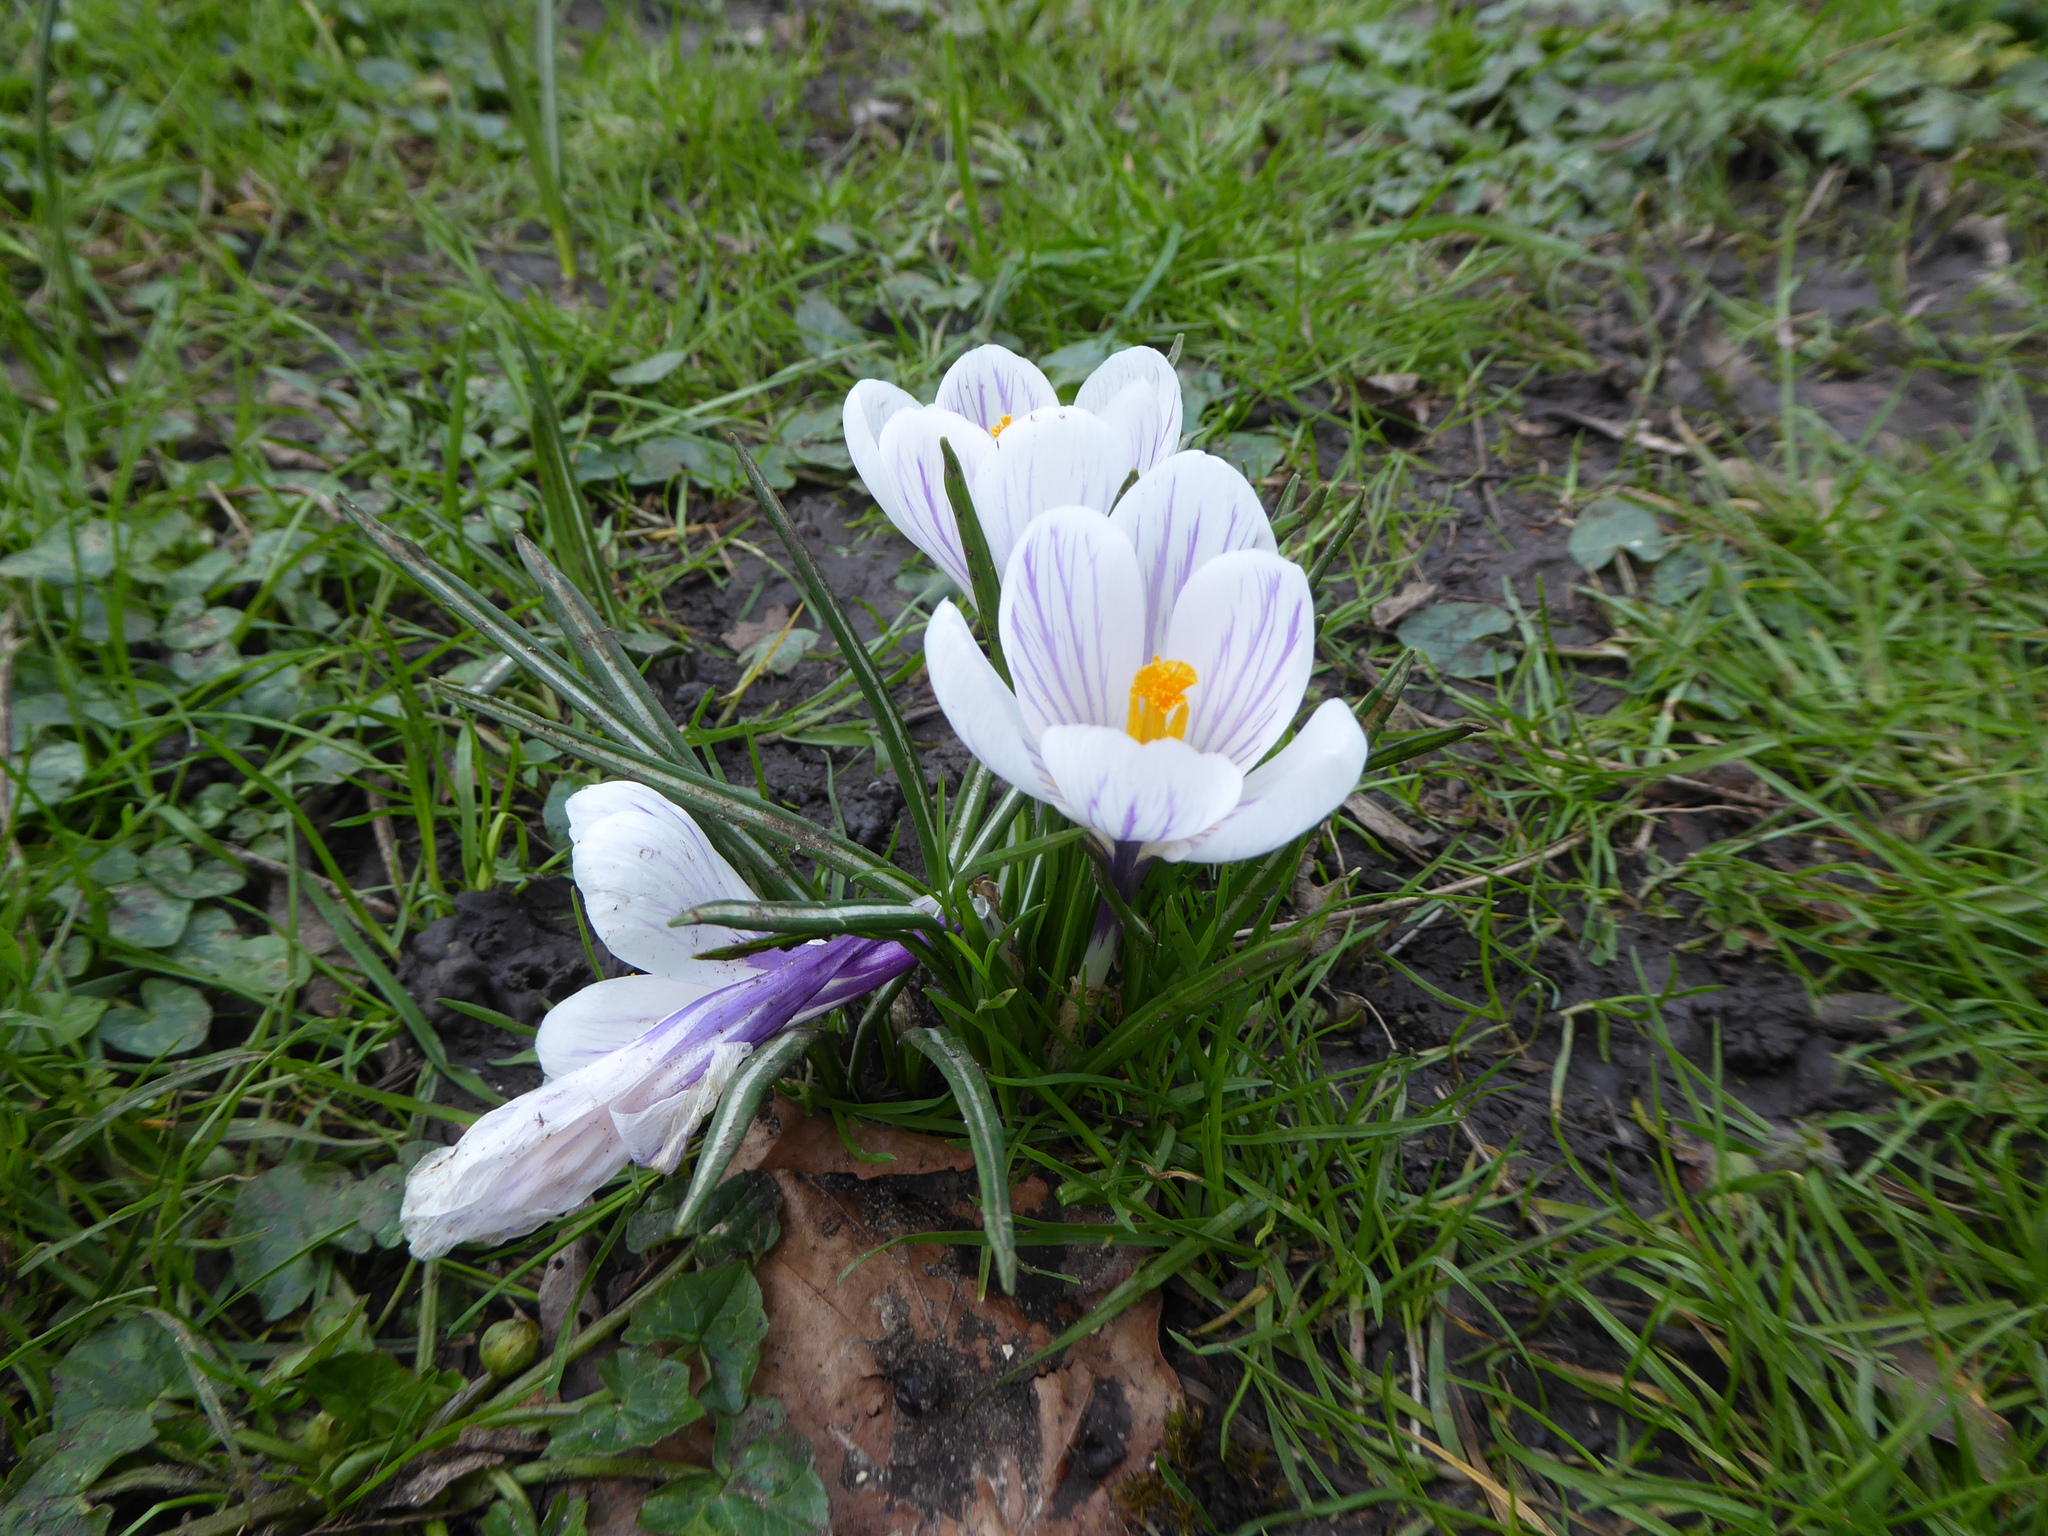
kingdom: Plantae
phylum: Tracheophyta
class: Liliopsida
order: Asparagales
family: Iridaceae
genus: Crocus
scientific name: Crocus neapolitanus
